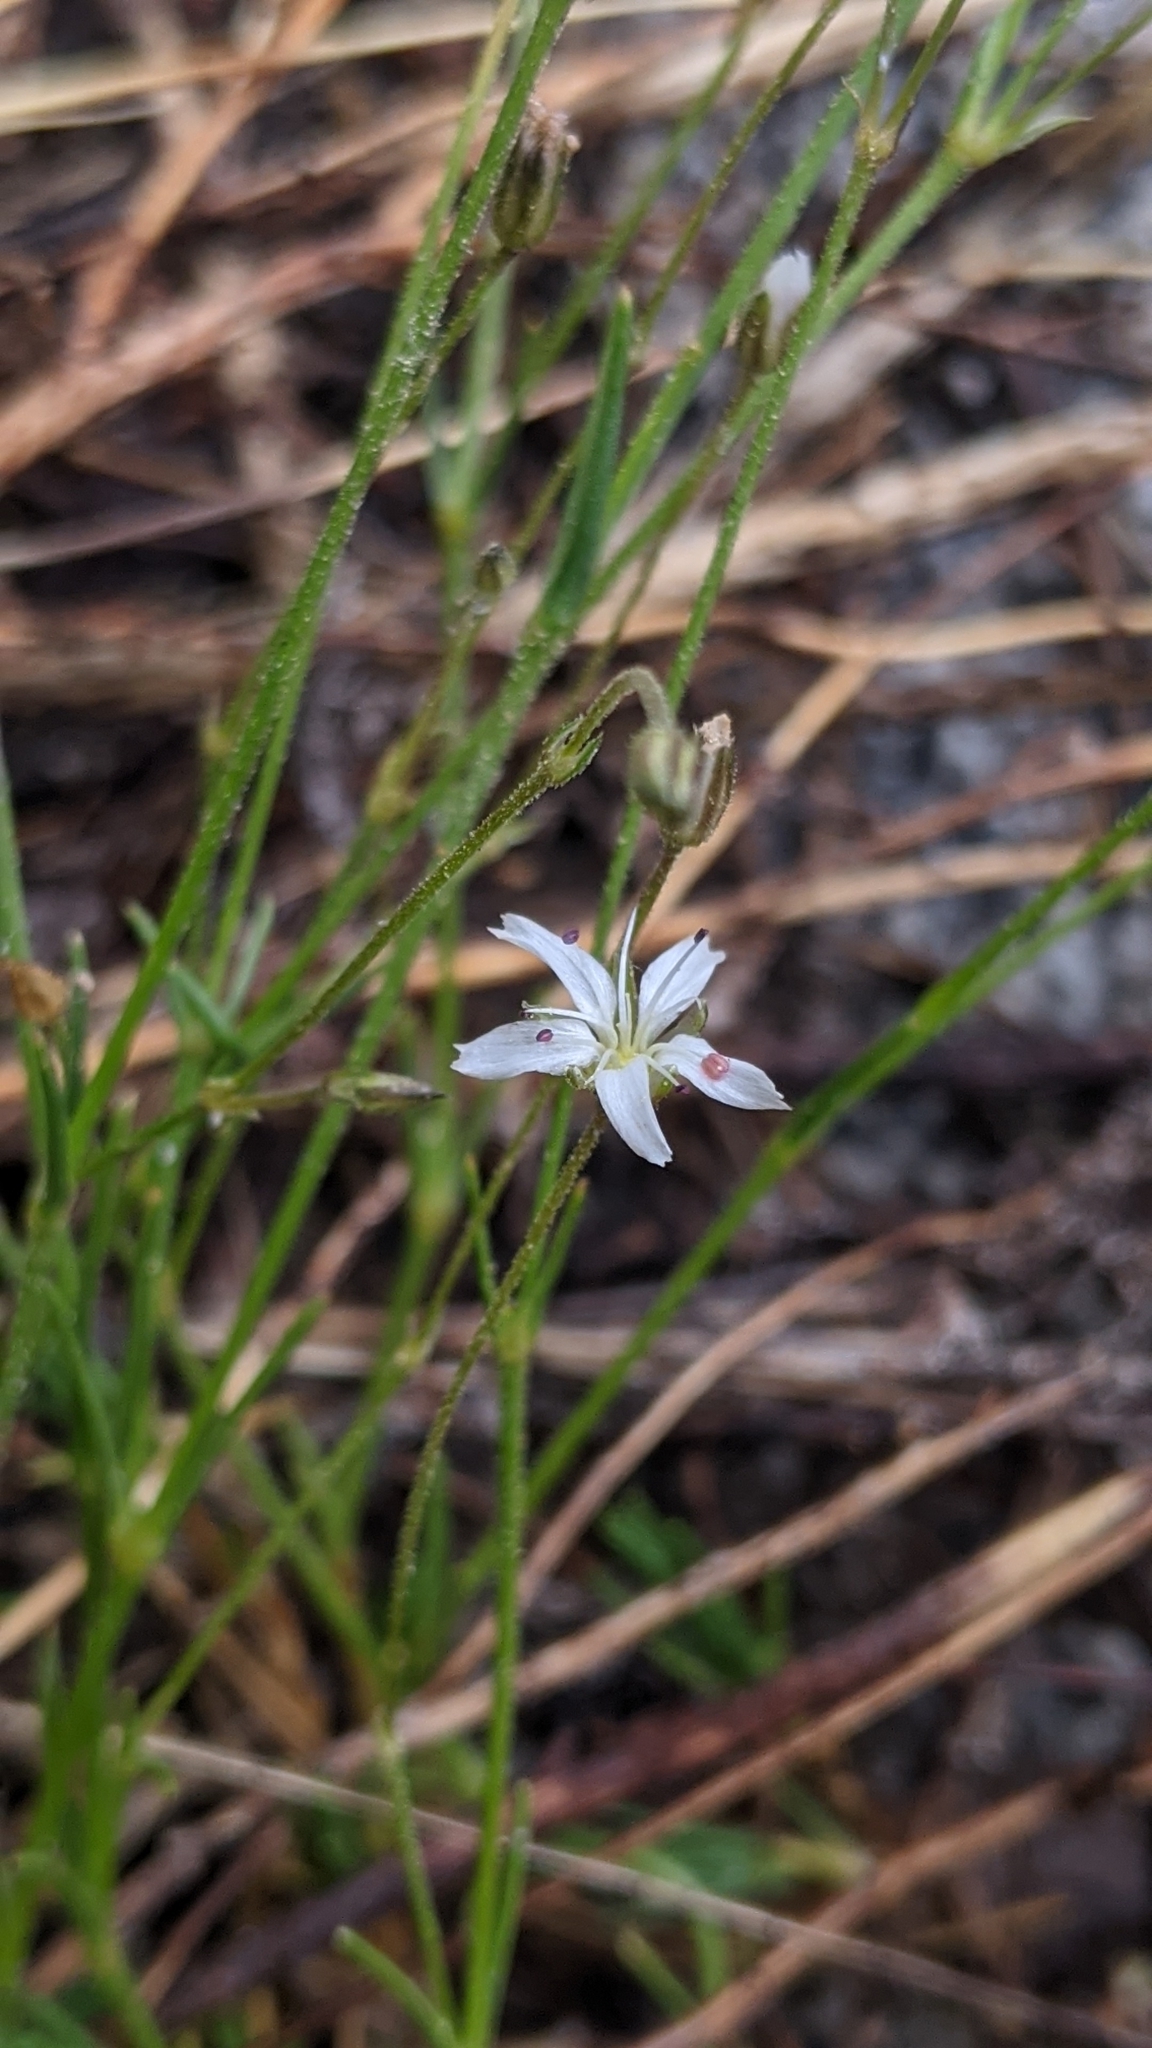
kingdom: Plantae
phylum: Tracheophyta
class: Magnoliopsida
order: Caryophyllales
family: Caryophyllaceae
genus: Eremogone
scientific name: Eremogone kingii
